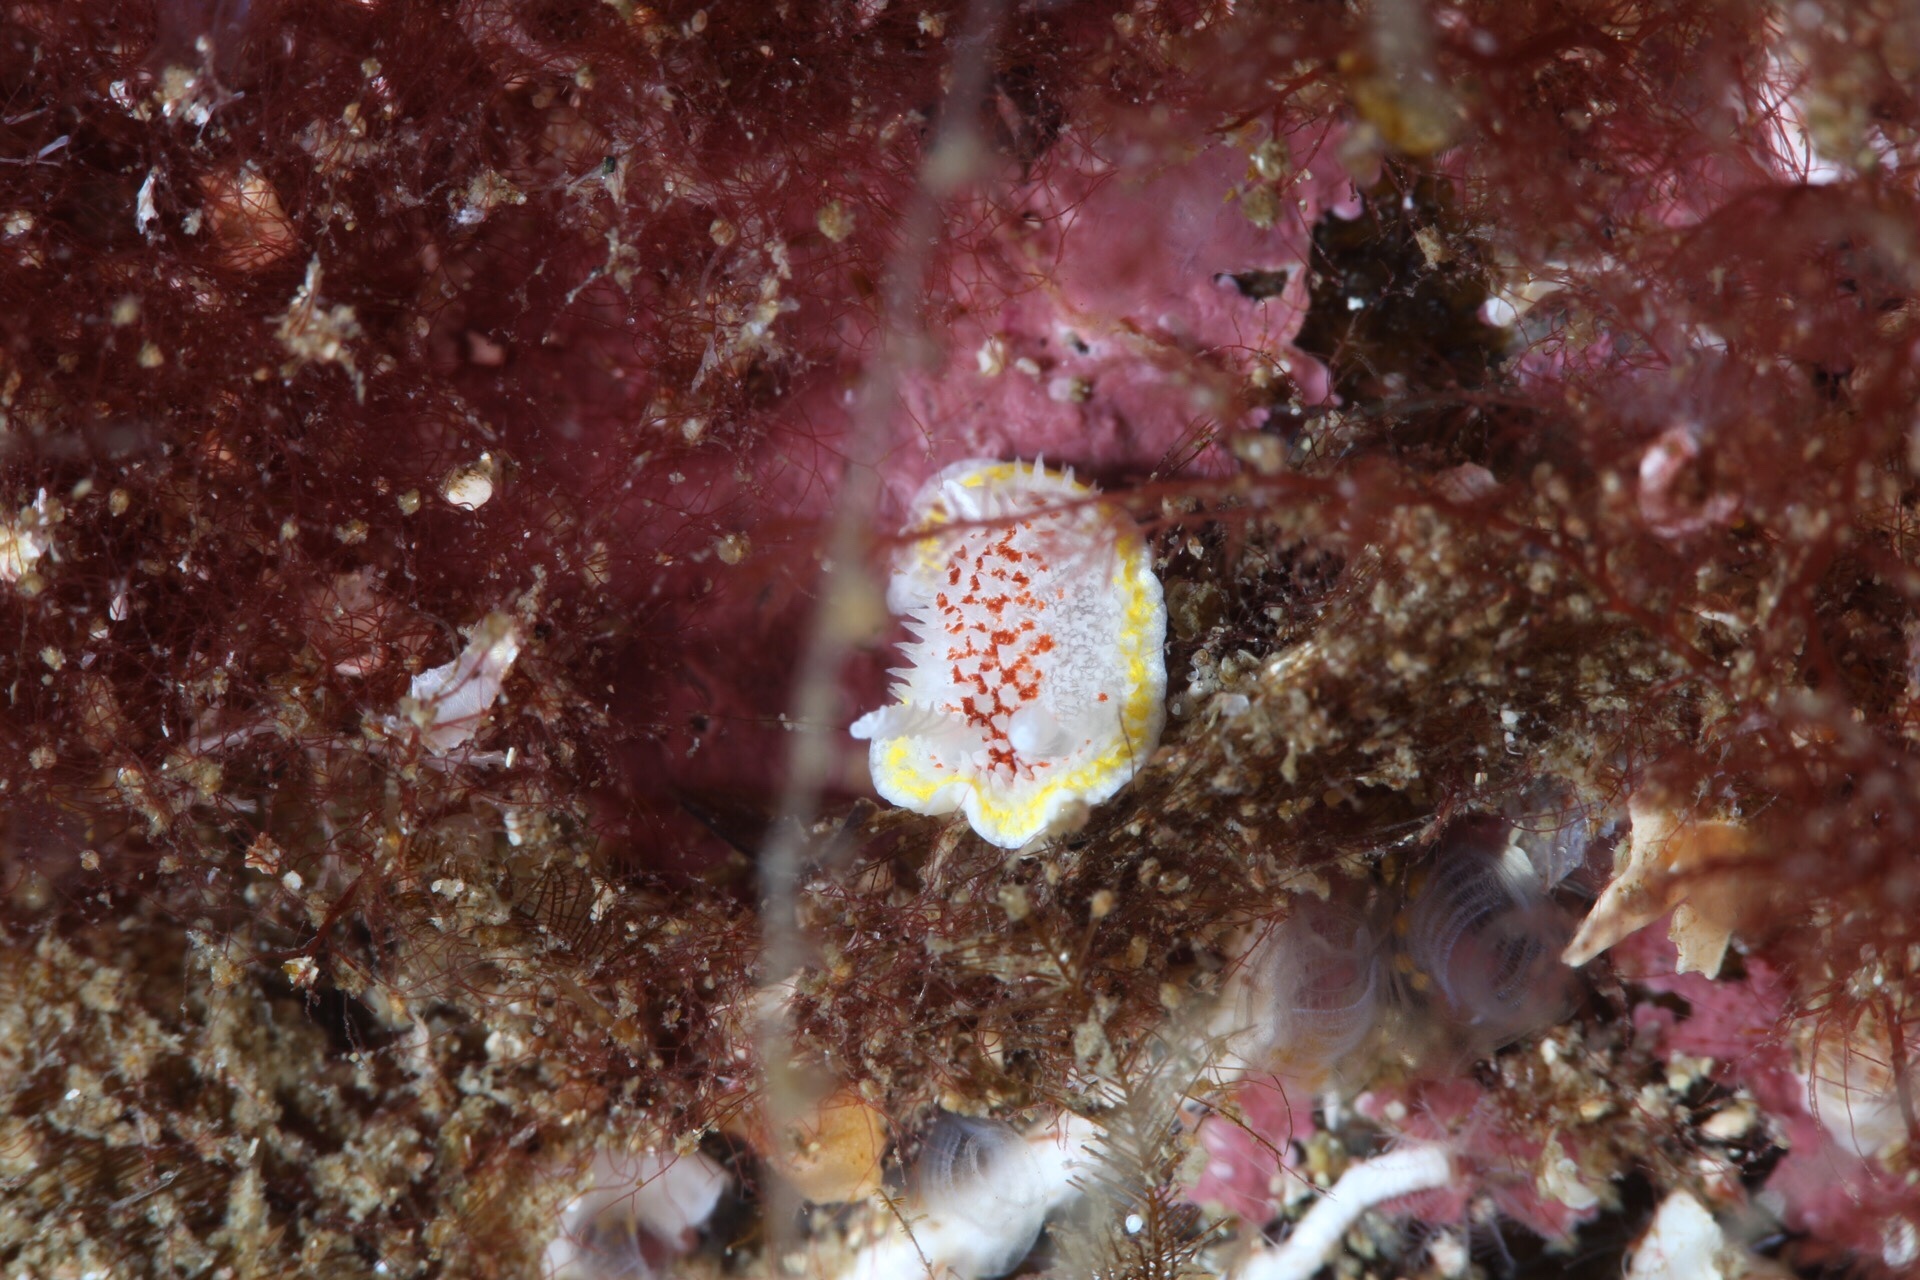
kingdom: Animalia
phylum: Mollusca
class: Gastropoda
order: Nudibranchia
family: Calycidorididae
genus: Diaphorodoris
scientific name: Diaphorodoris luteocincta
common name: Fried egg nudibranch
